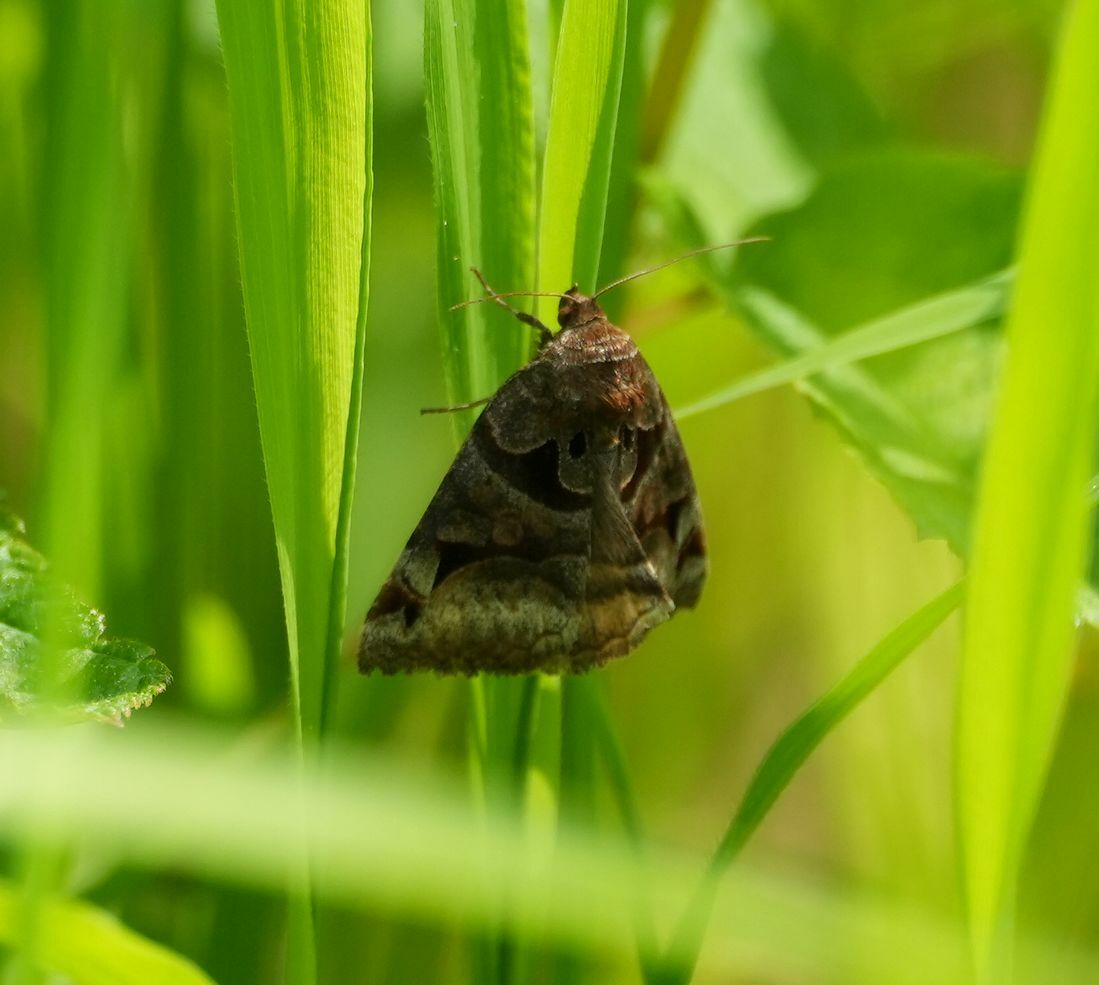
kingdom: Animalia
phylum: Arthropoda
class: Insecta
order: Lepidoptera
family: Erebidae
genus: Euclidia
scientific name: Euclidia cuspidea
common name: Toothed somberwing
